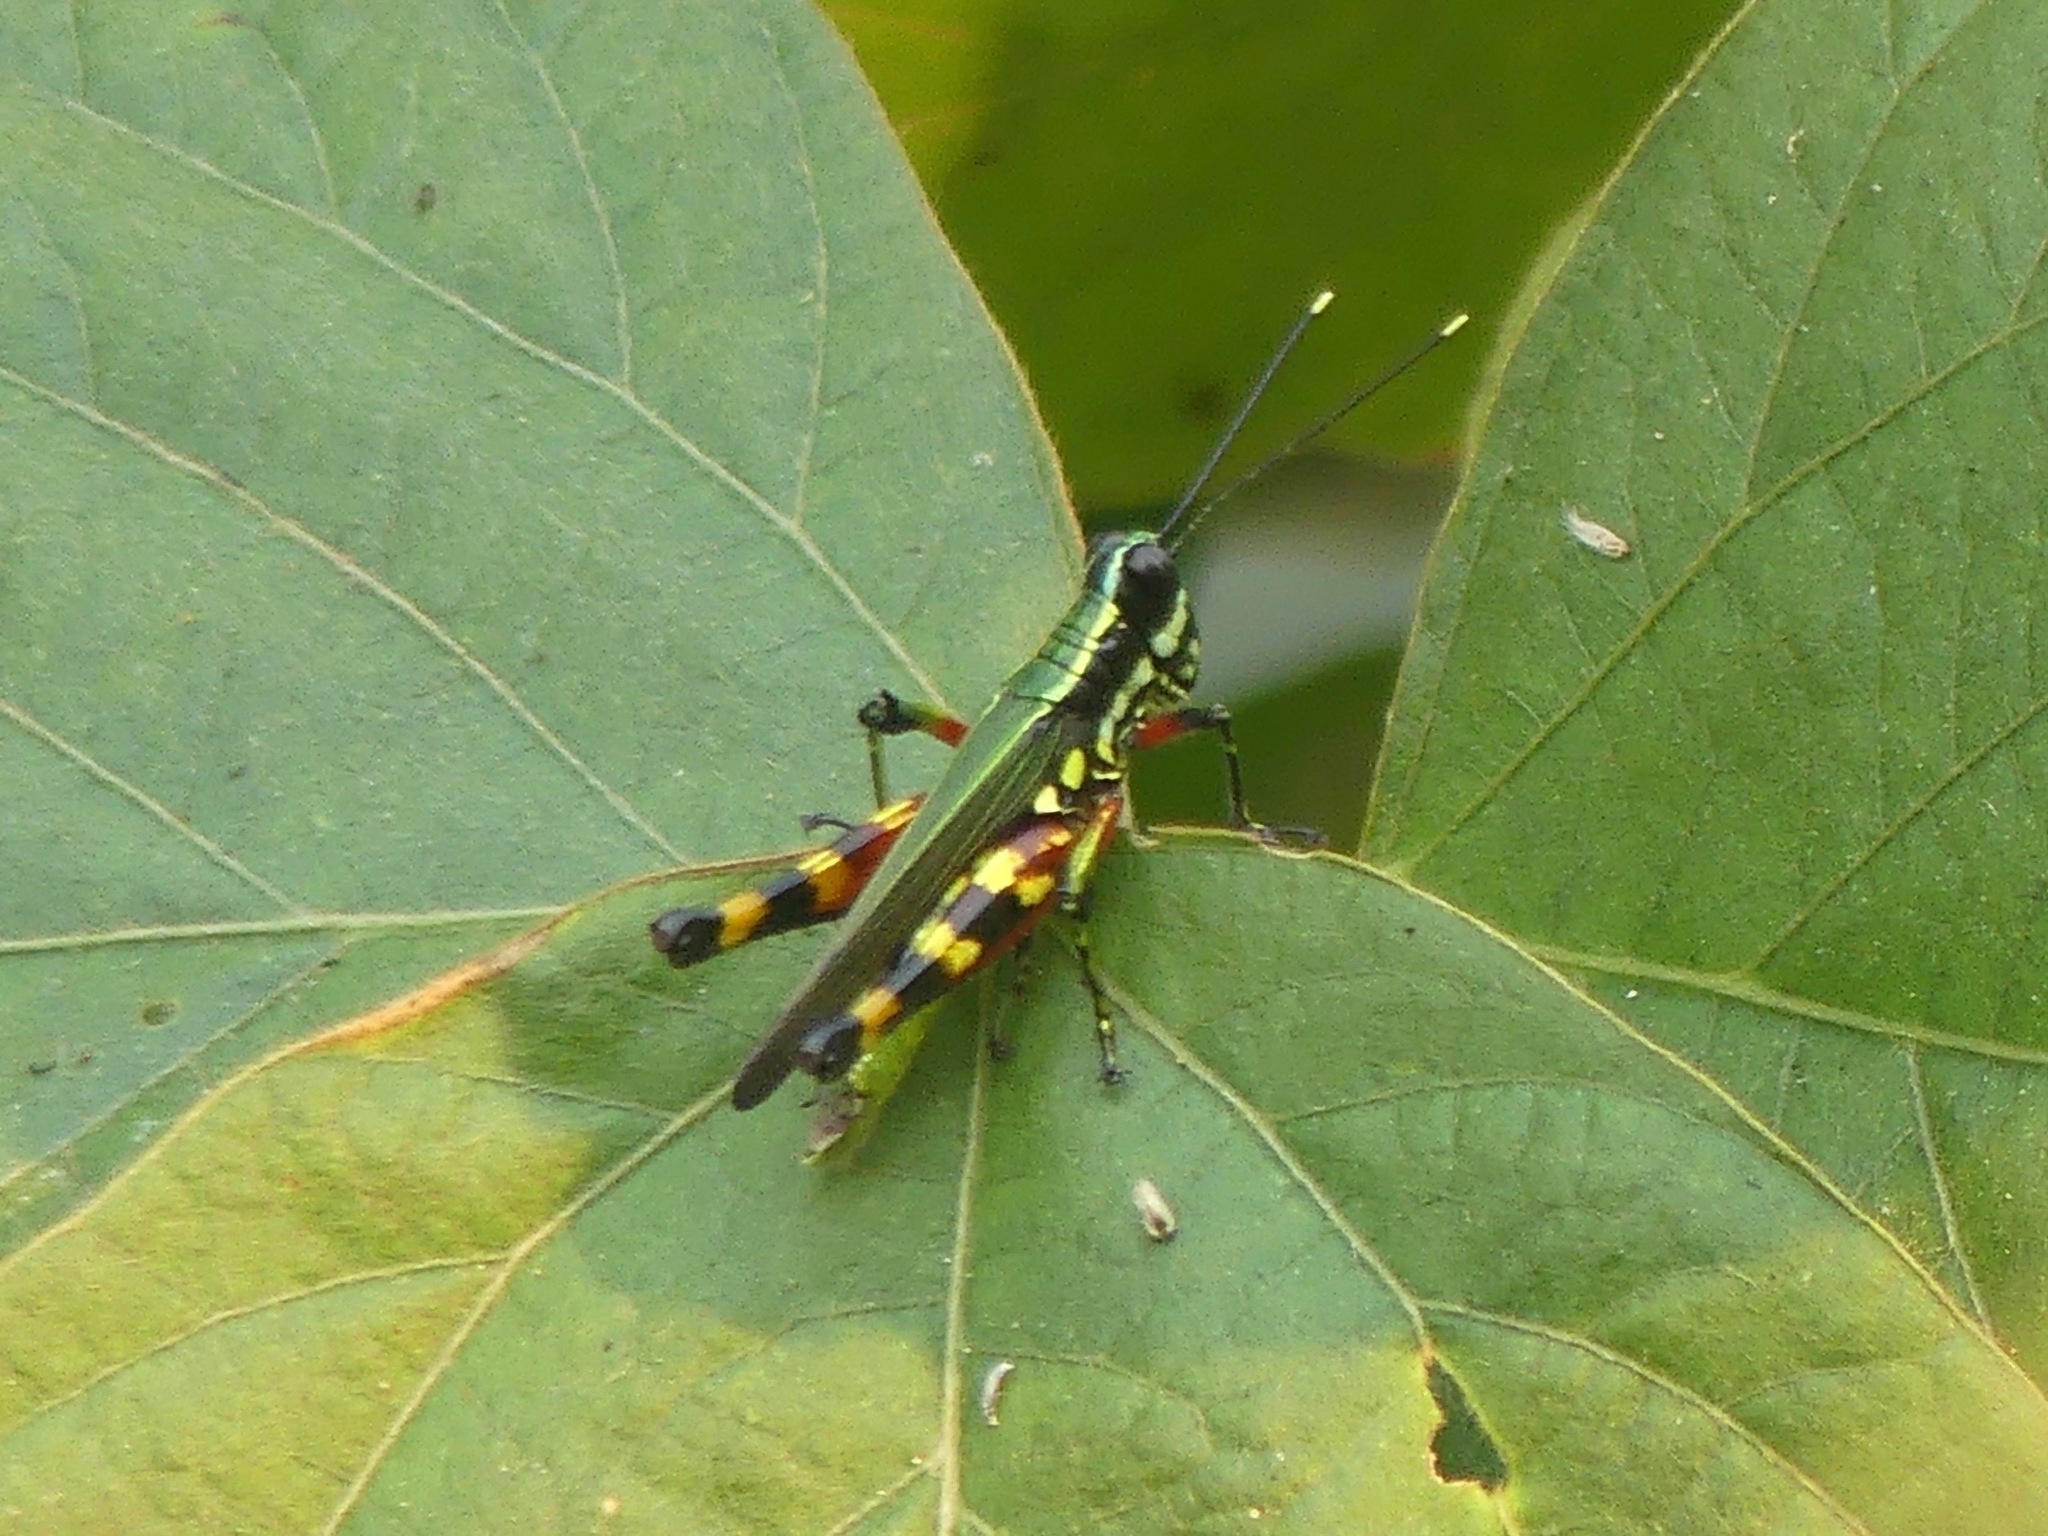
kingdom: Animalia
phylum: Arthropoda
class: Insecta
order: Orthoptera
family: Acrididae
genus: Tetrataenia
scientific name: Tetrataenia surinama
